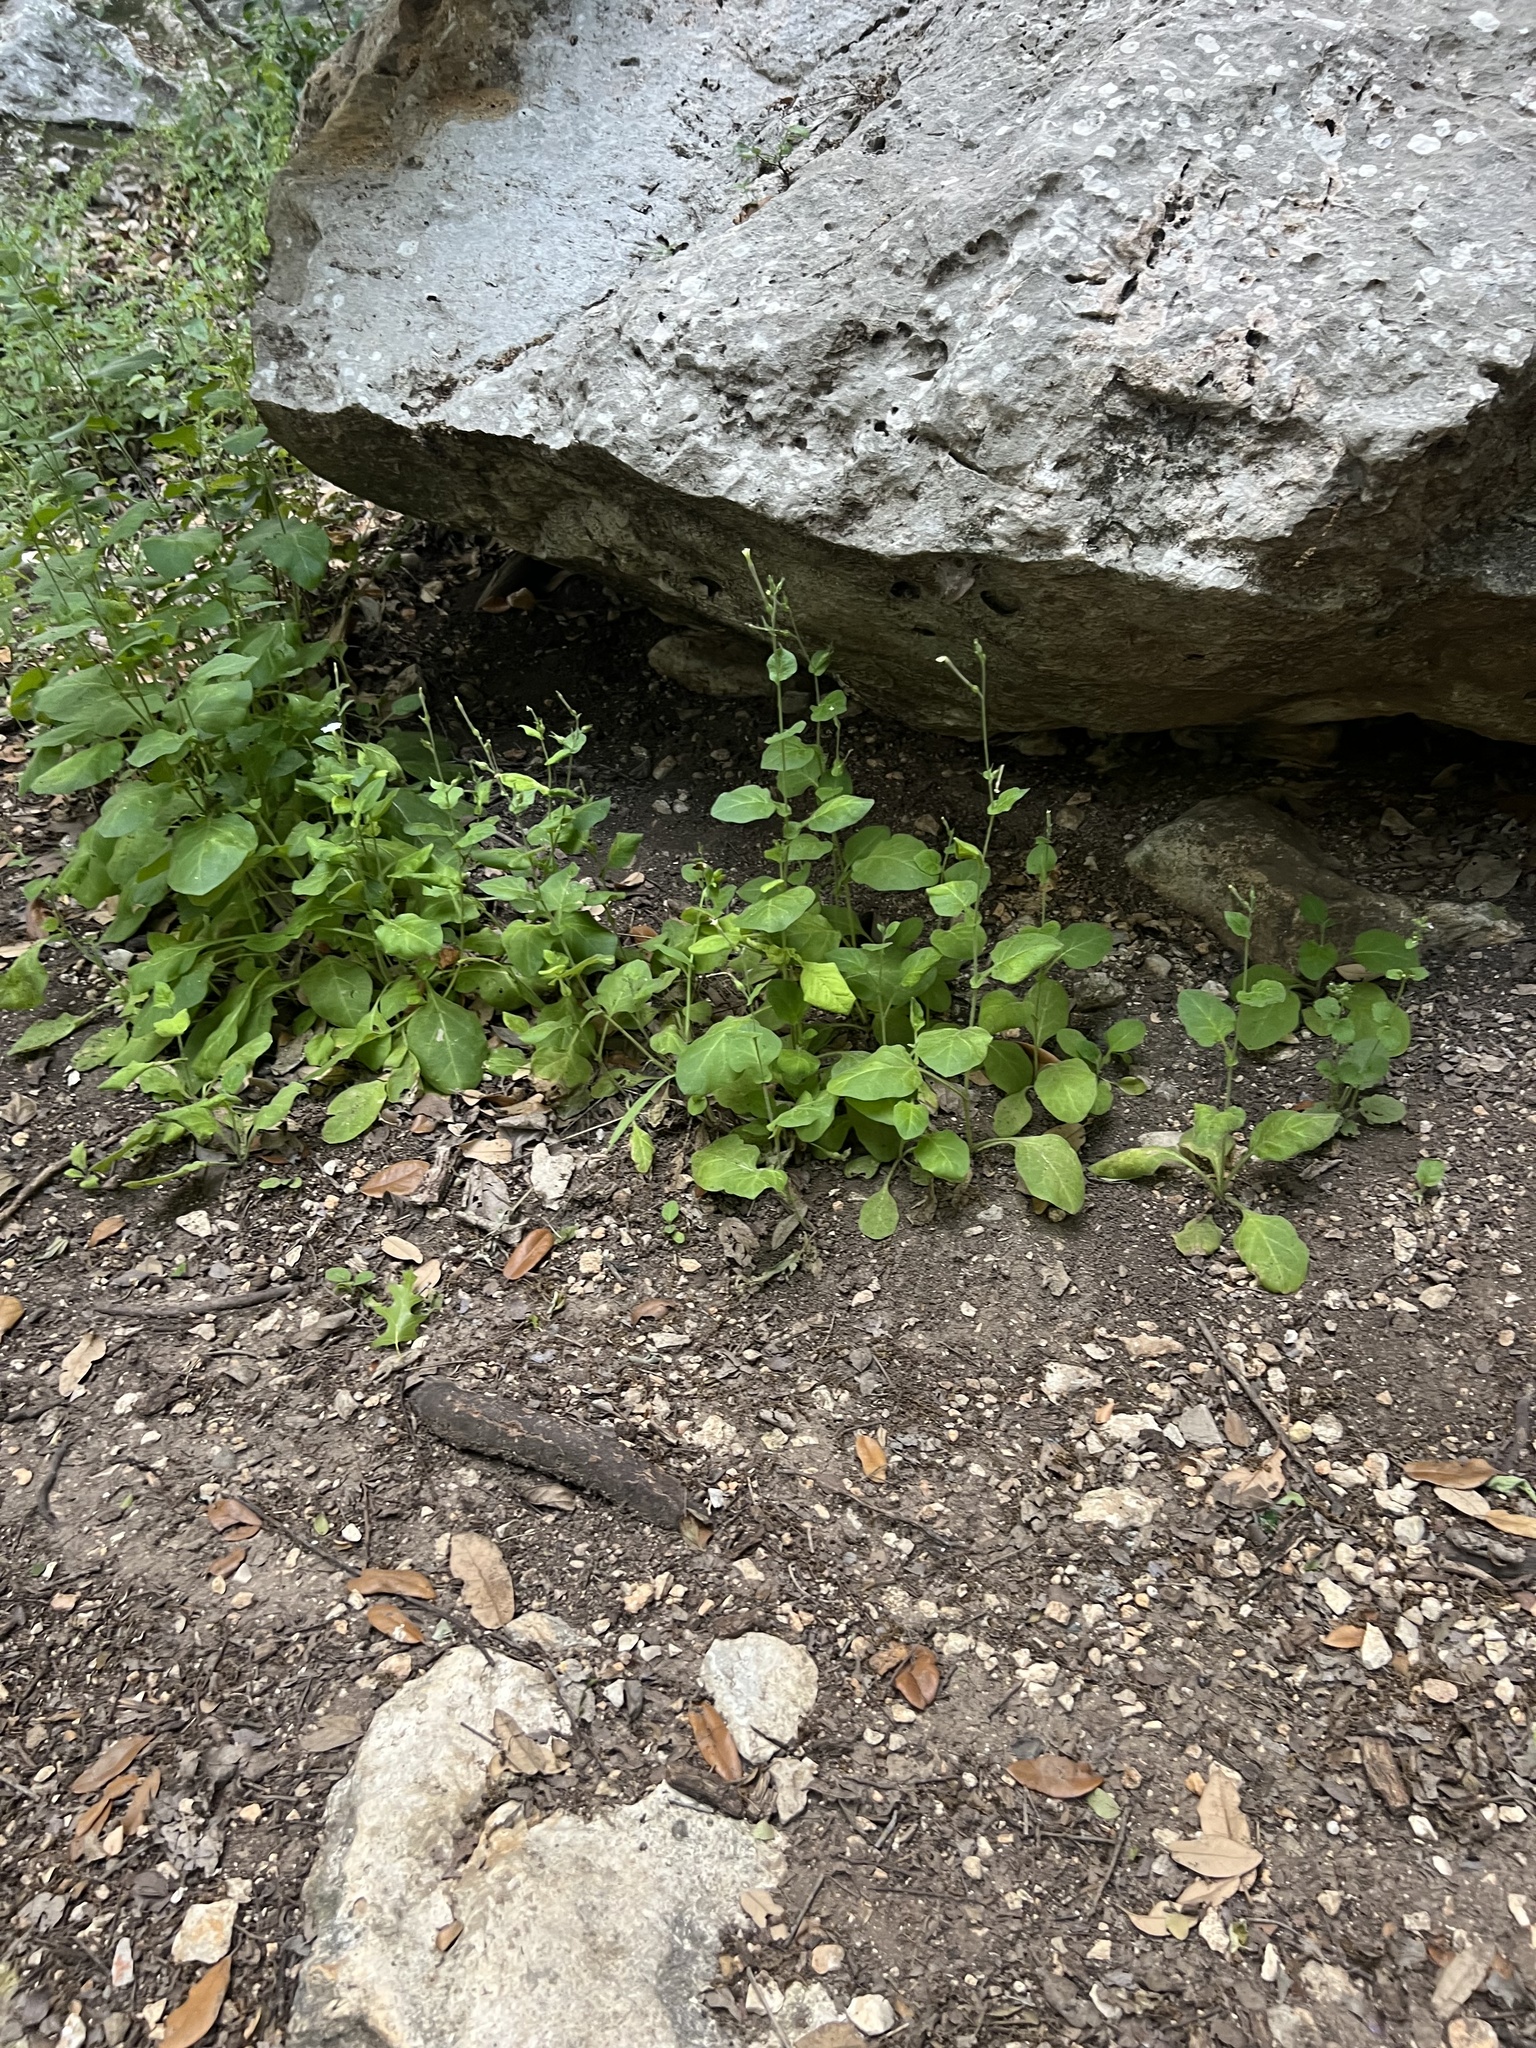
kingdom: Plantae
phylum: Tracheophyta
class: Magnoliopsida
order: Solanales
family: Solanaceae
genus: Nicotiana
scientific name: Nicotiana repanda
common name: Fiddle-leaf tobacco
